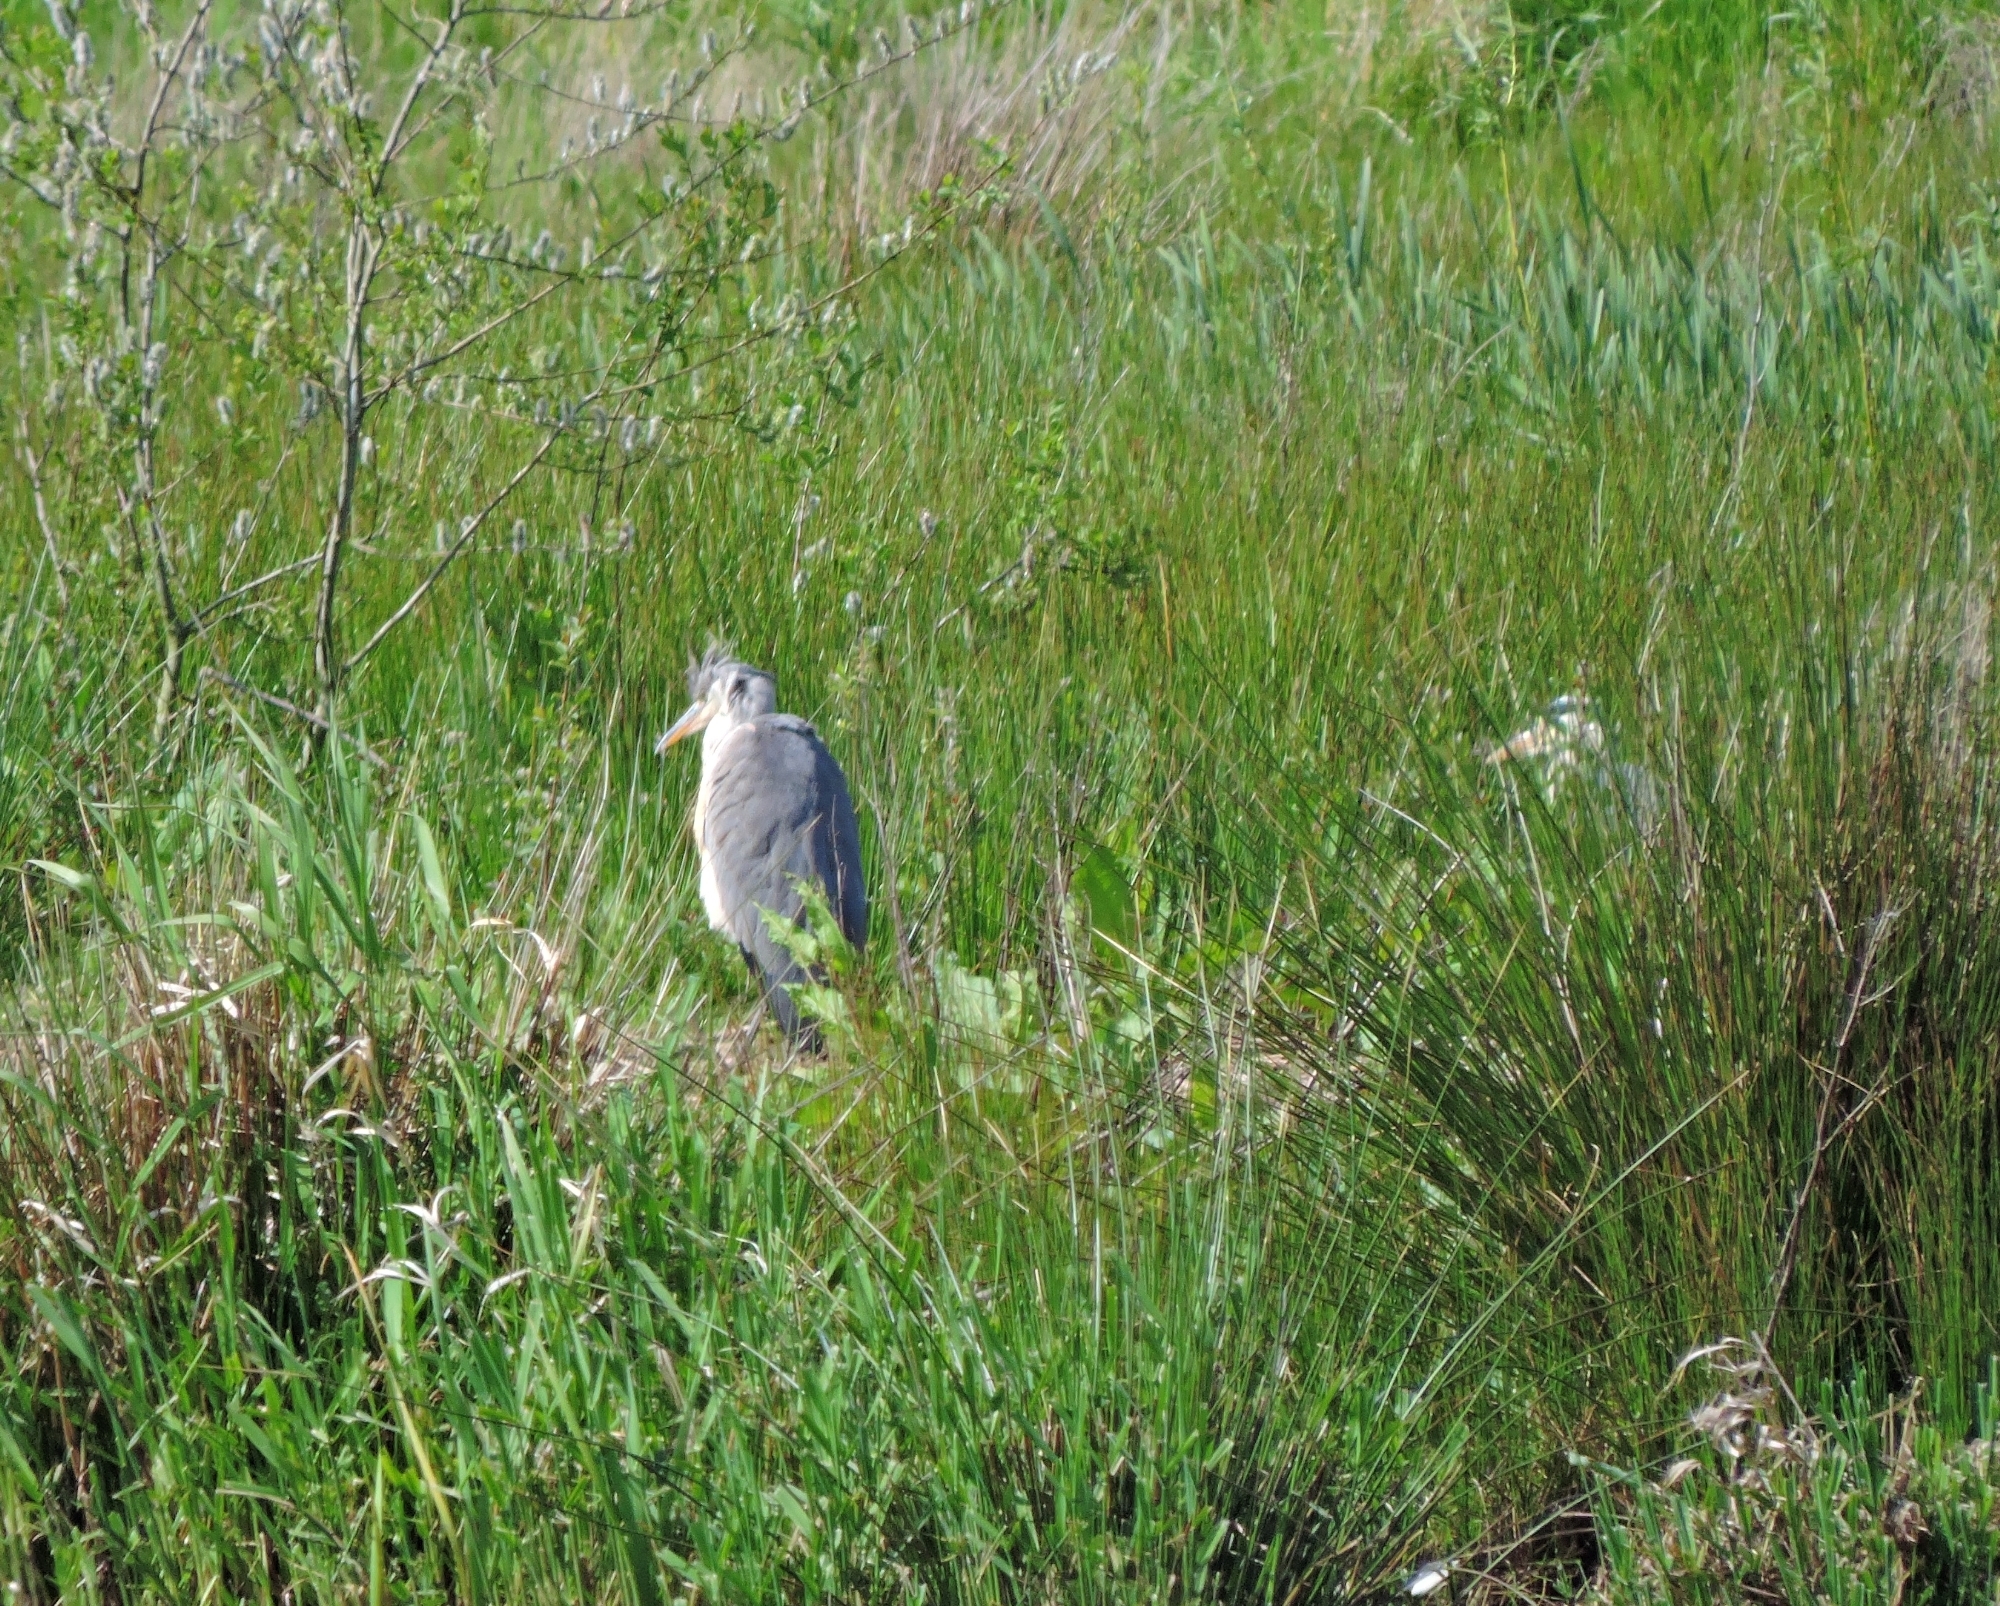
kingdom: Animalia
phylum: Chordata
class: Aves
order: Pelecaniformes
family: Ardeidae
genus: Ardea
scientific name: Ardea cinerea
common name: Grey heron
